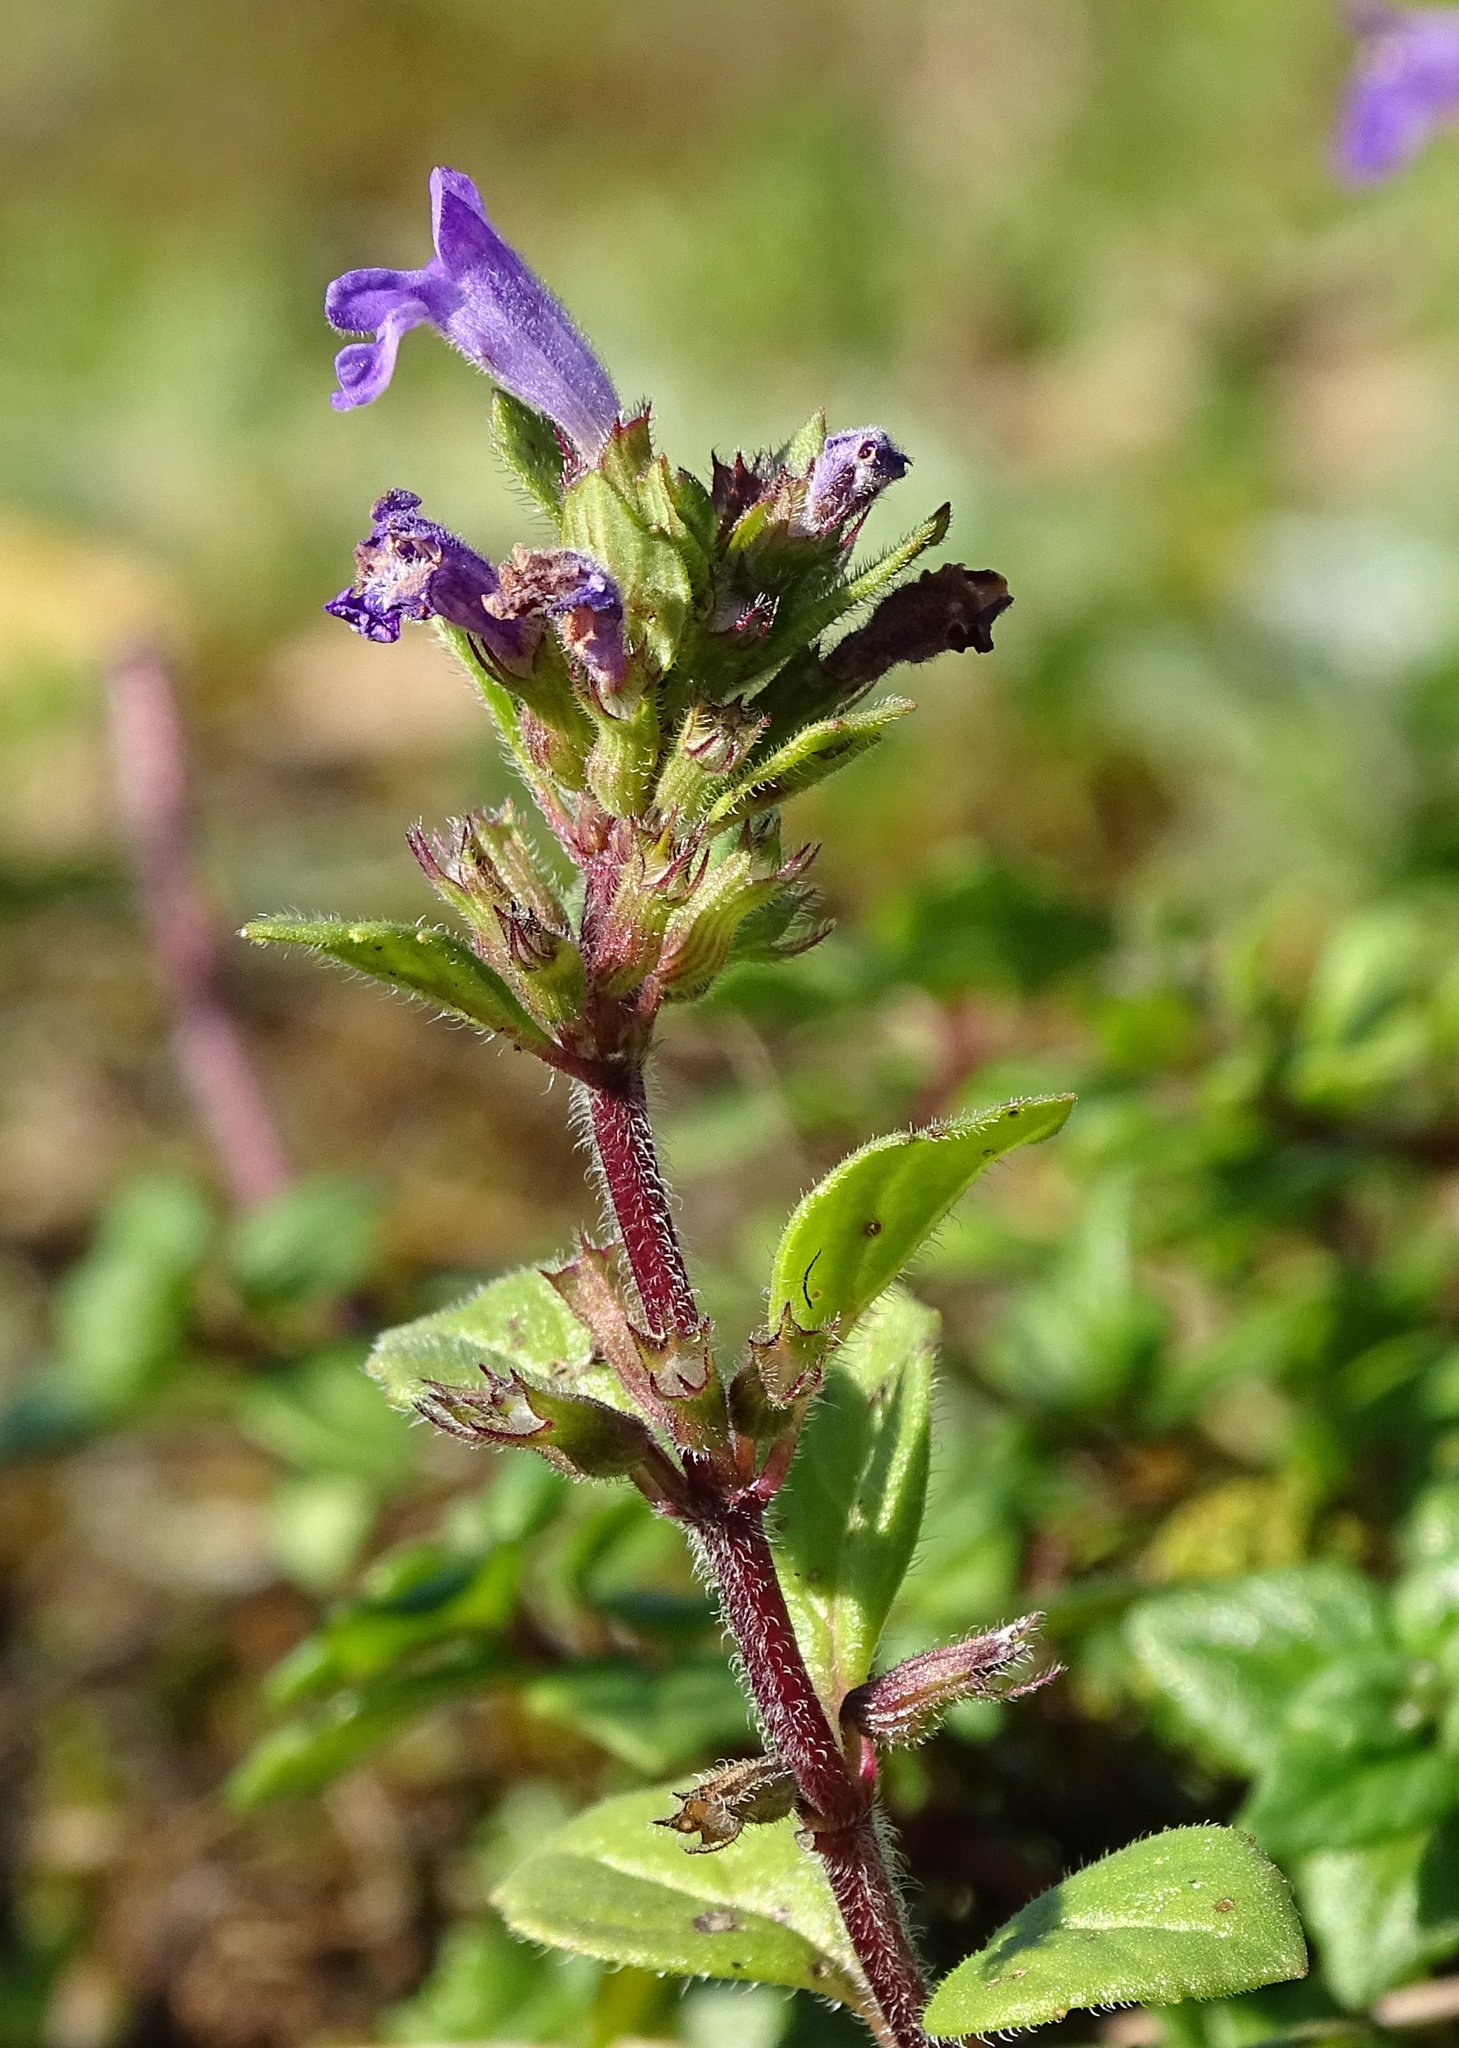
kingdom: Plantae
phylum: Tracheophyta
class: Magnoliopsida
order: Lamiales
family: Lamiaceae
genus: Clinopodium
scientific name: Clinopodium alpinum
